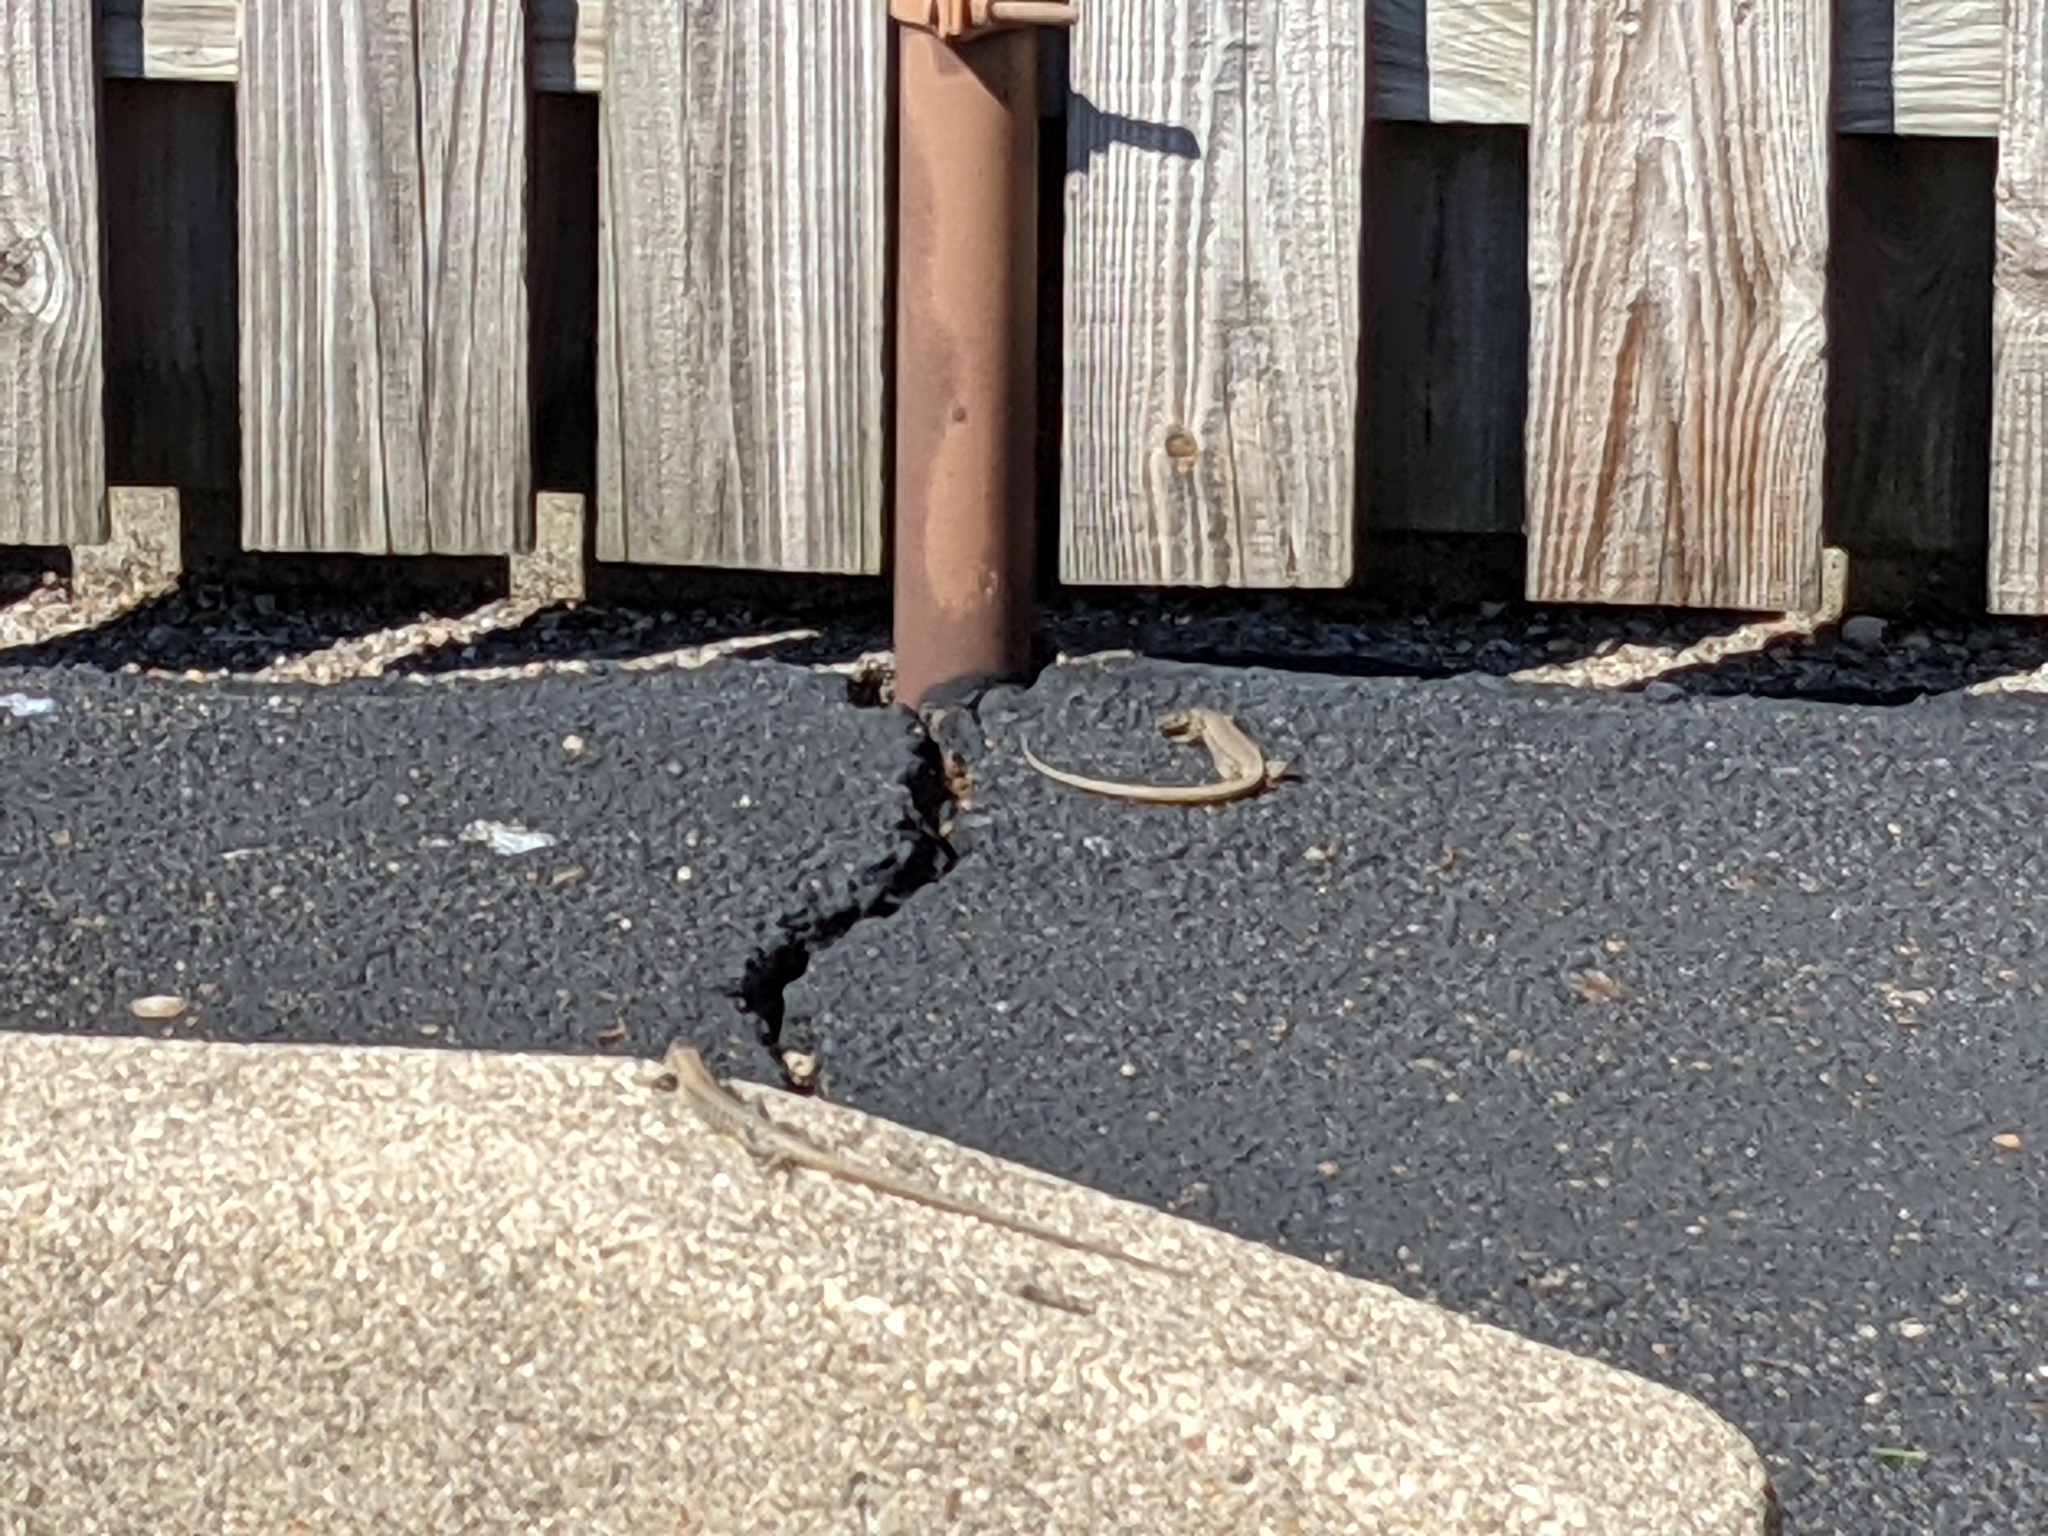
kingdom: Animalia
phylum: Chordata
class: Squamata
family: Lacertidae
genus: Podarcis
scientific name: Podarcis muralis
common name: Common wall lizard
